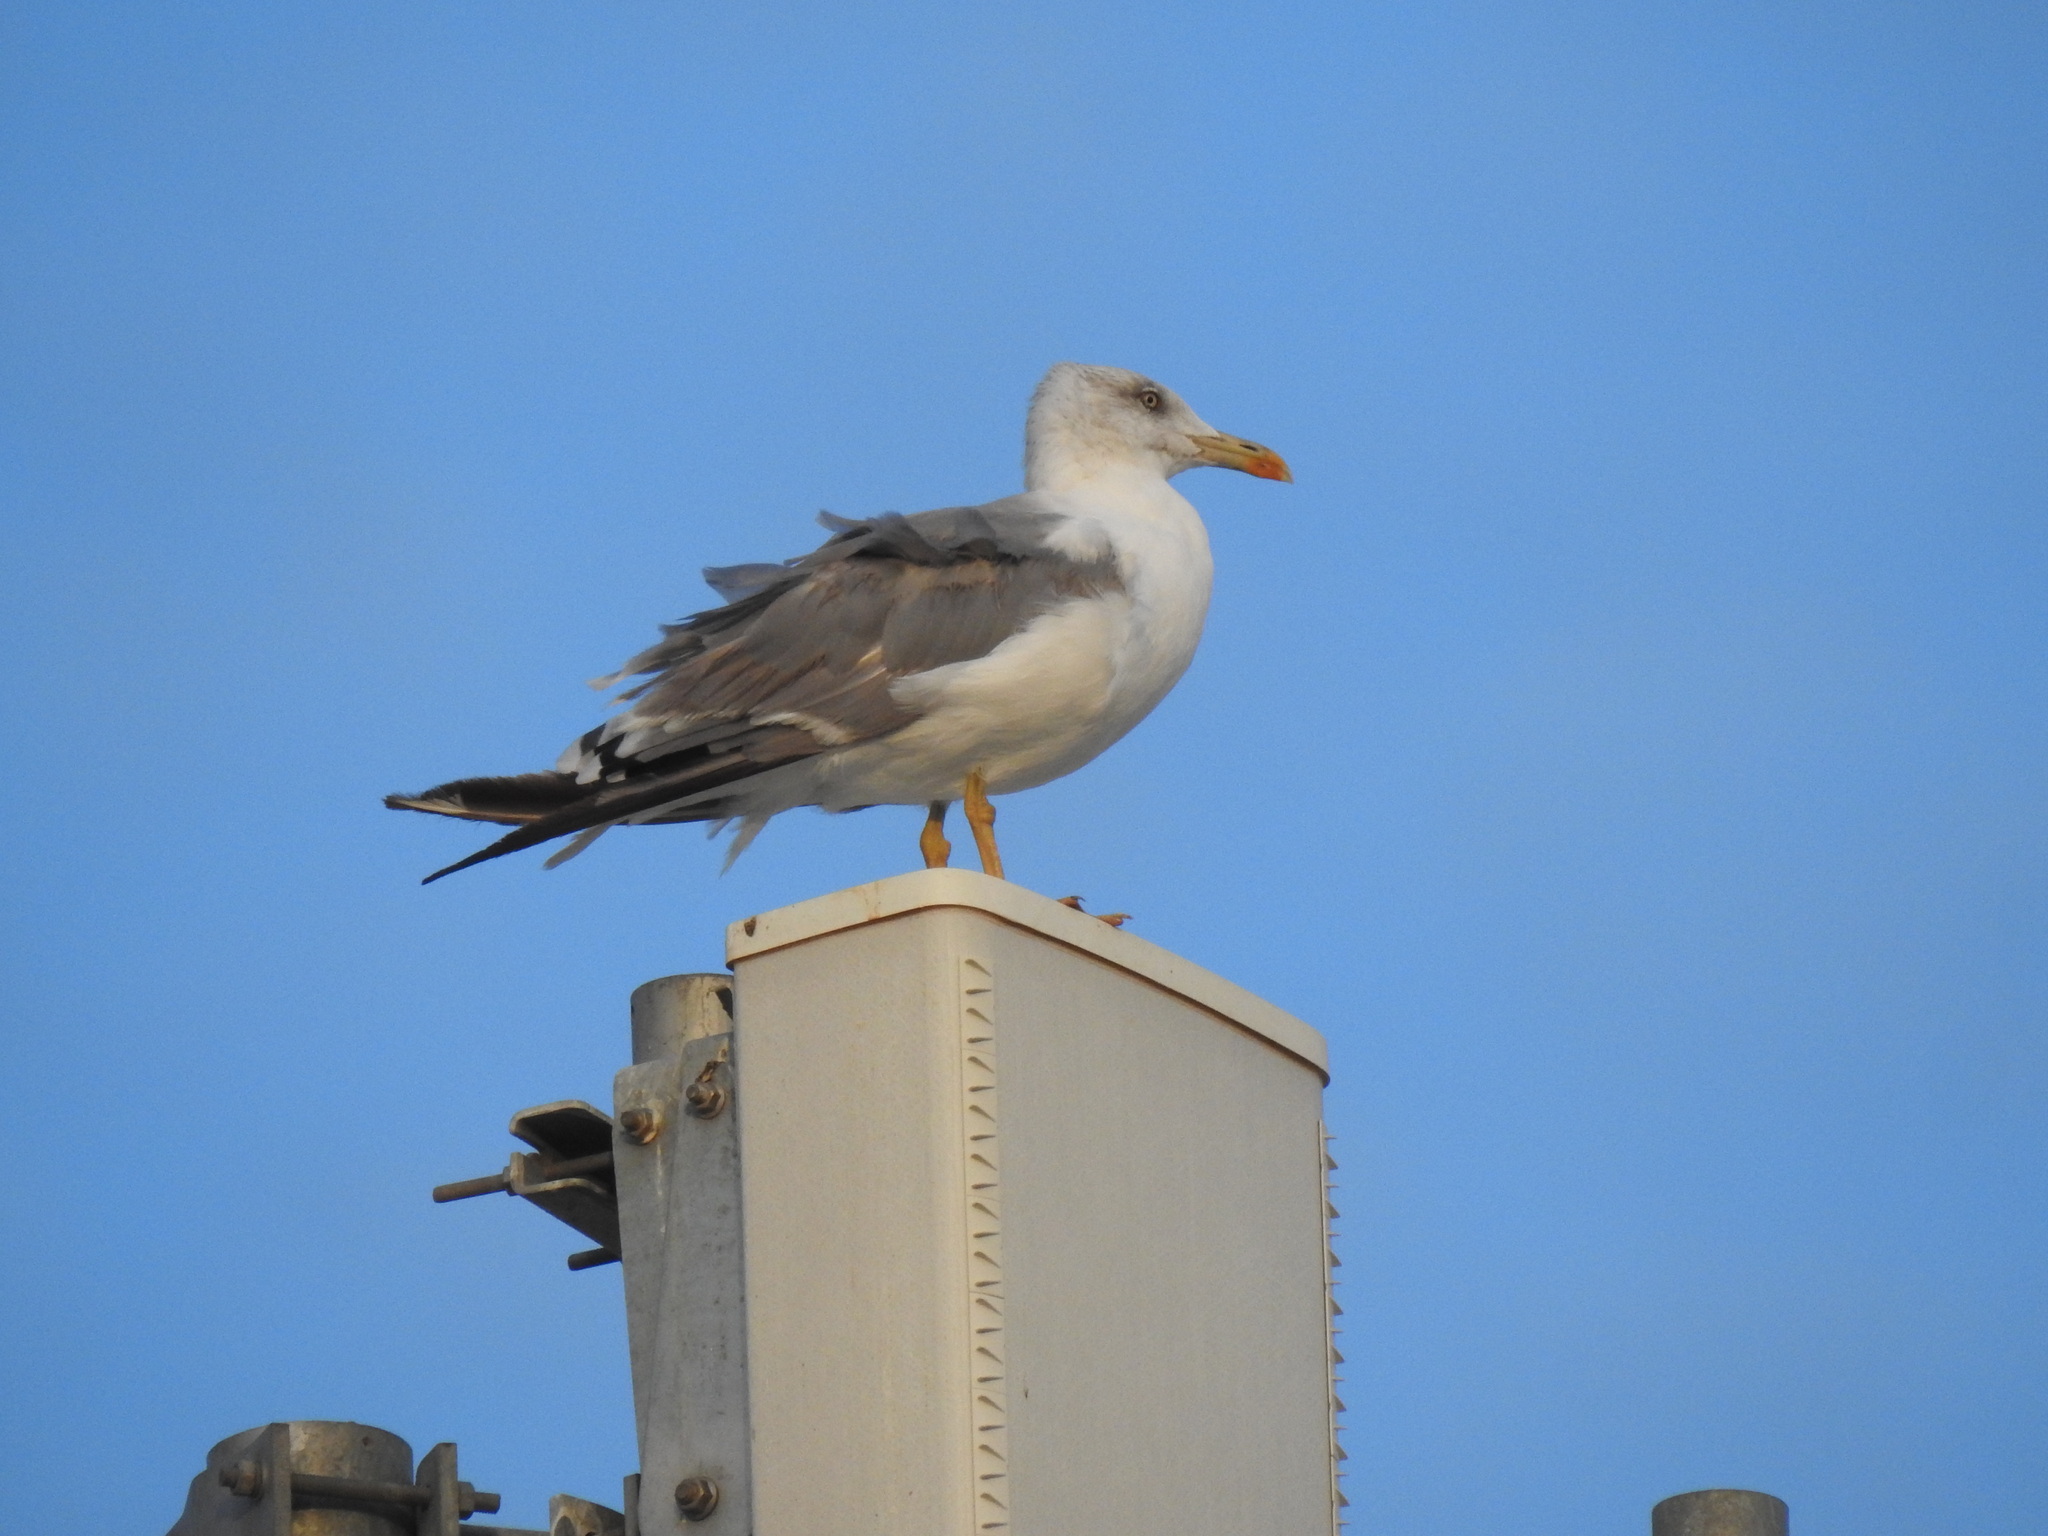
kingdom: Animalia
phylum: Chordata
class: Aves
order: Charadriiformes
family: Laridae
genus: Larus
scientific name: Larus michahellis
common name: Yellow-legged gull
